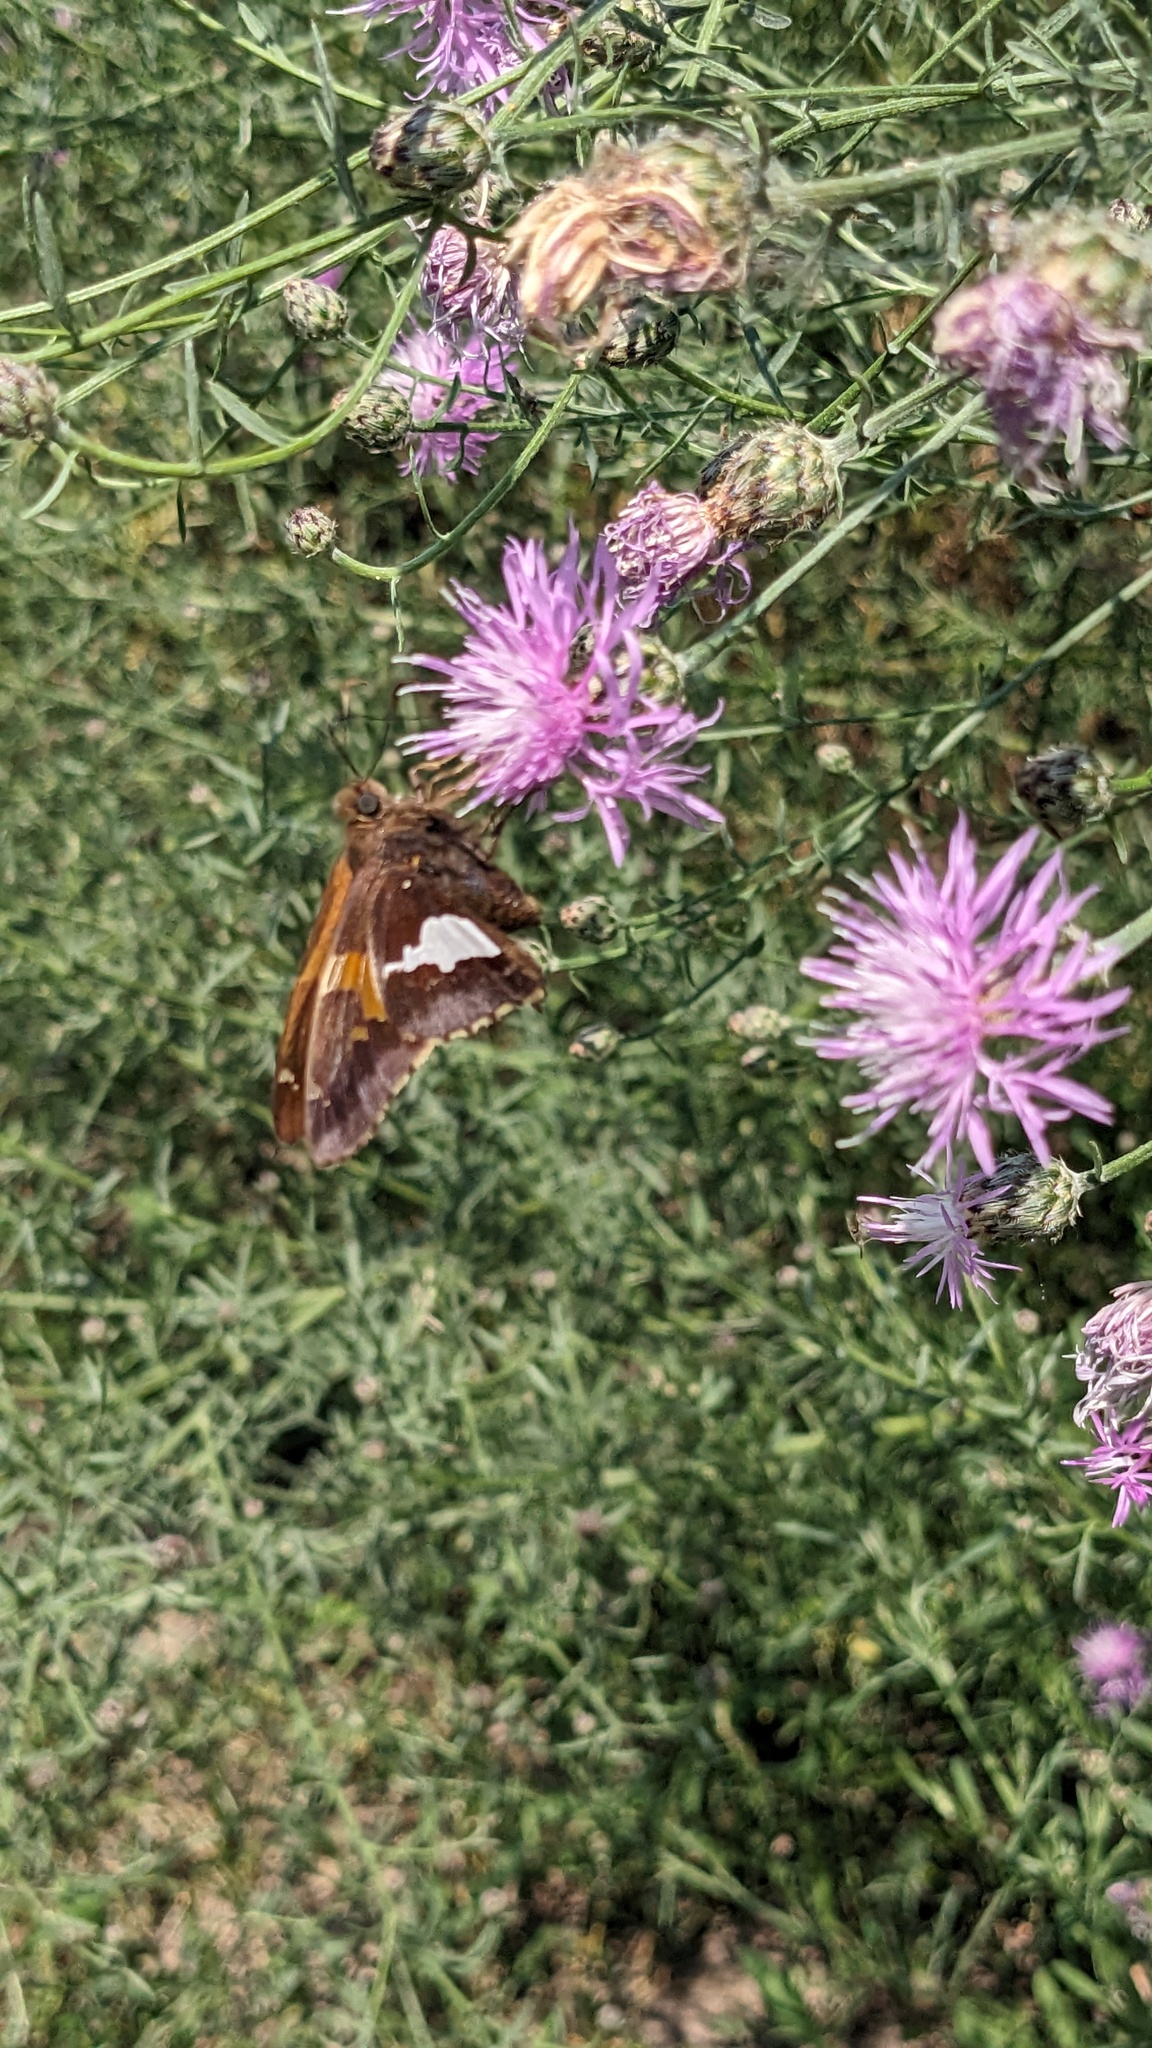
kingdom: Animalia
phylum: Arthropoda
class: Insecta
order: Lepidoptera
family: Hesperiidae
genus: Epargyreus
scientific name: Epargyreus clarus
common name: Silver-spotted skipper
